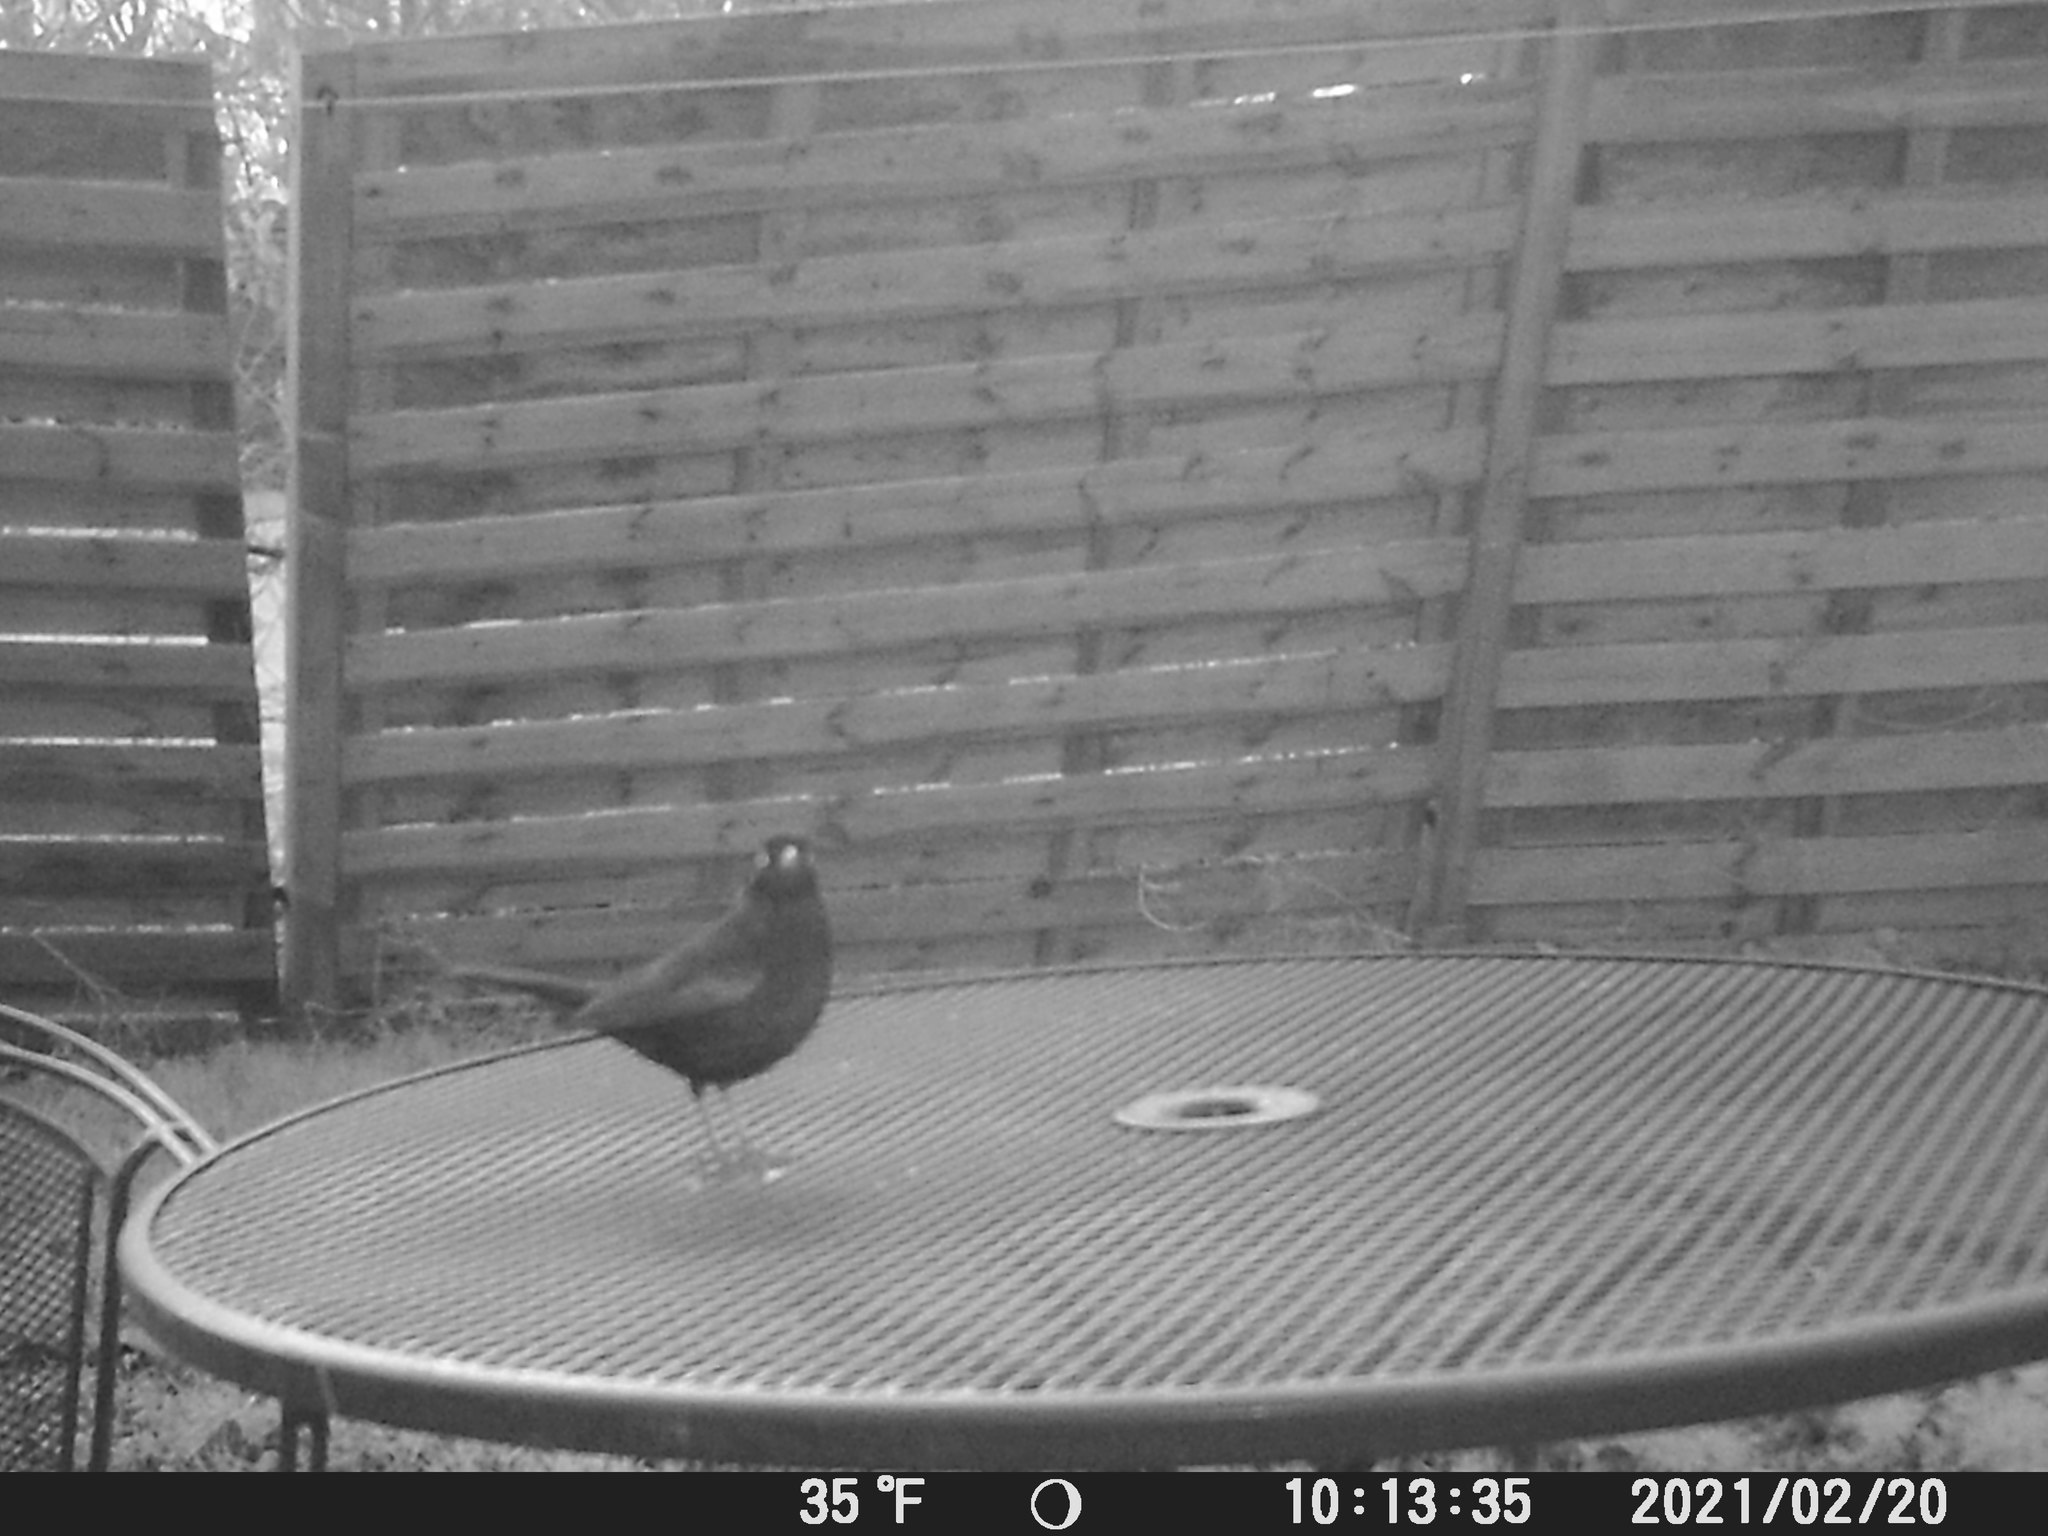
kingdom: Animalia
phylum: Chordata
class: Aves
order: Passeriformes
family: Turdidae
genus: Turdus
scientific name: Turdus merula
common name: Common blackbird
